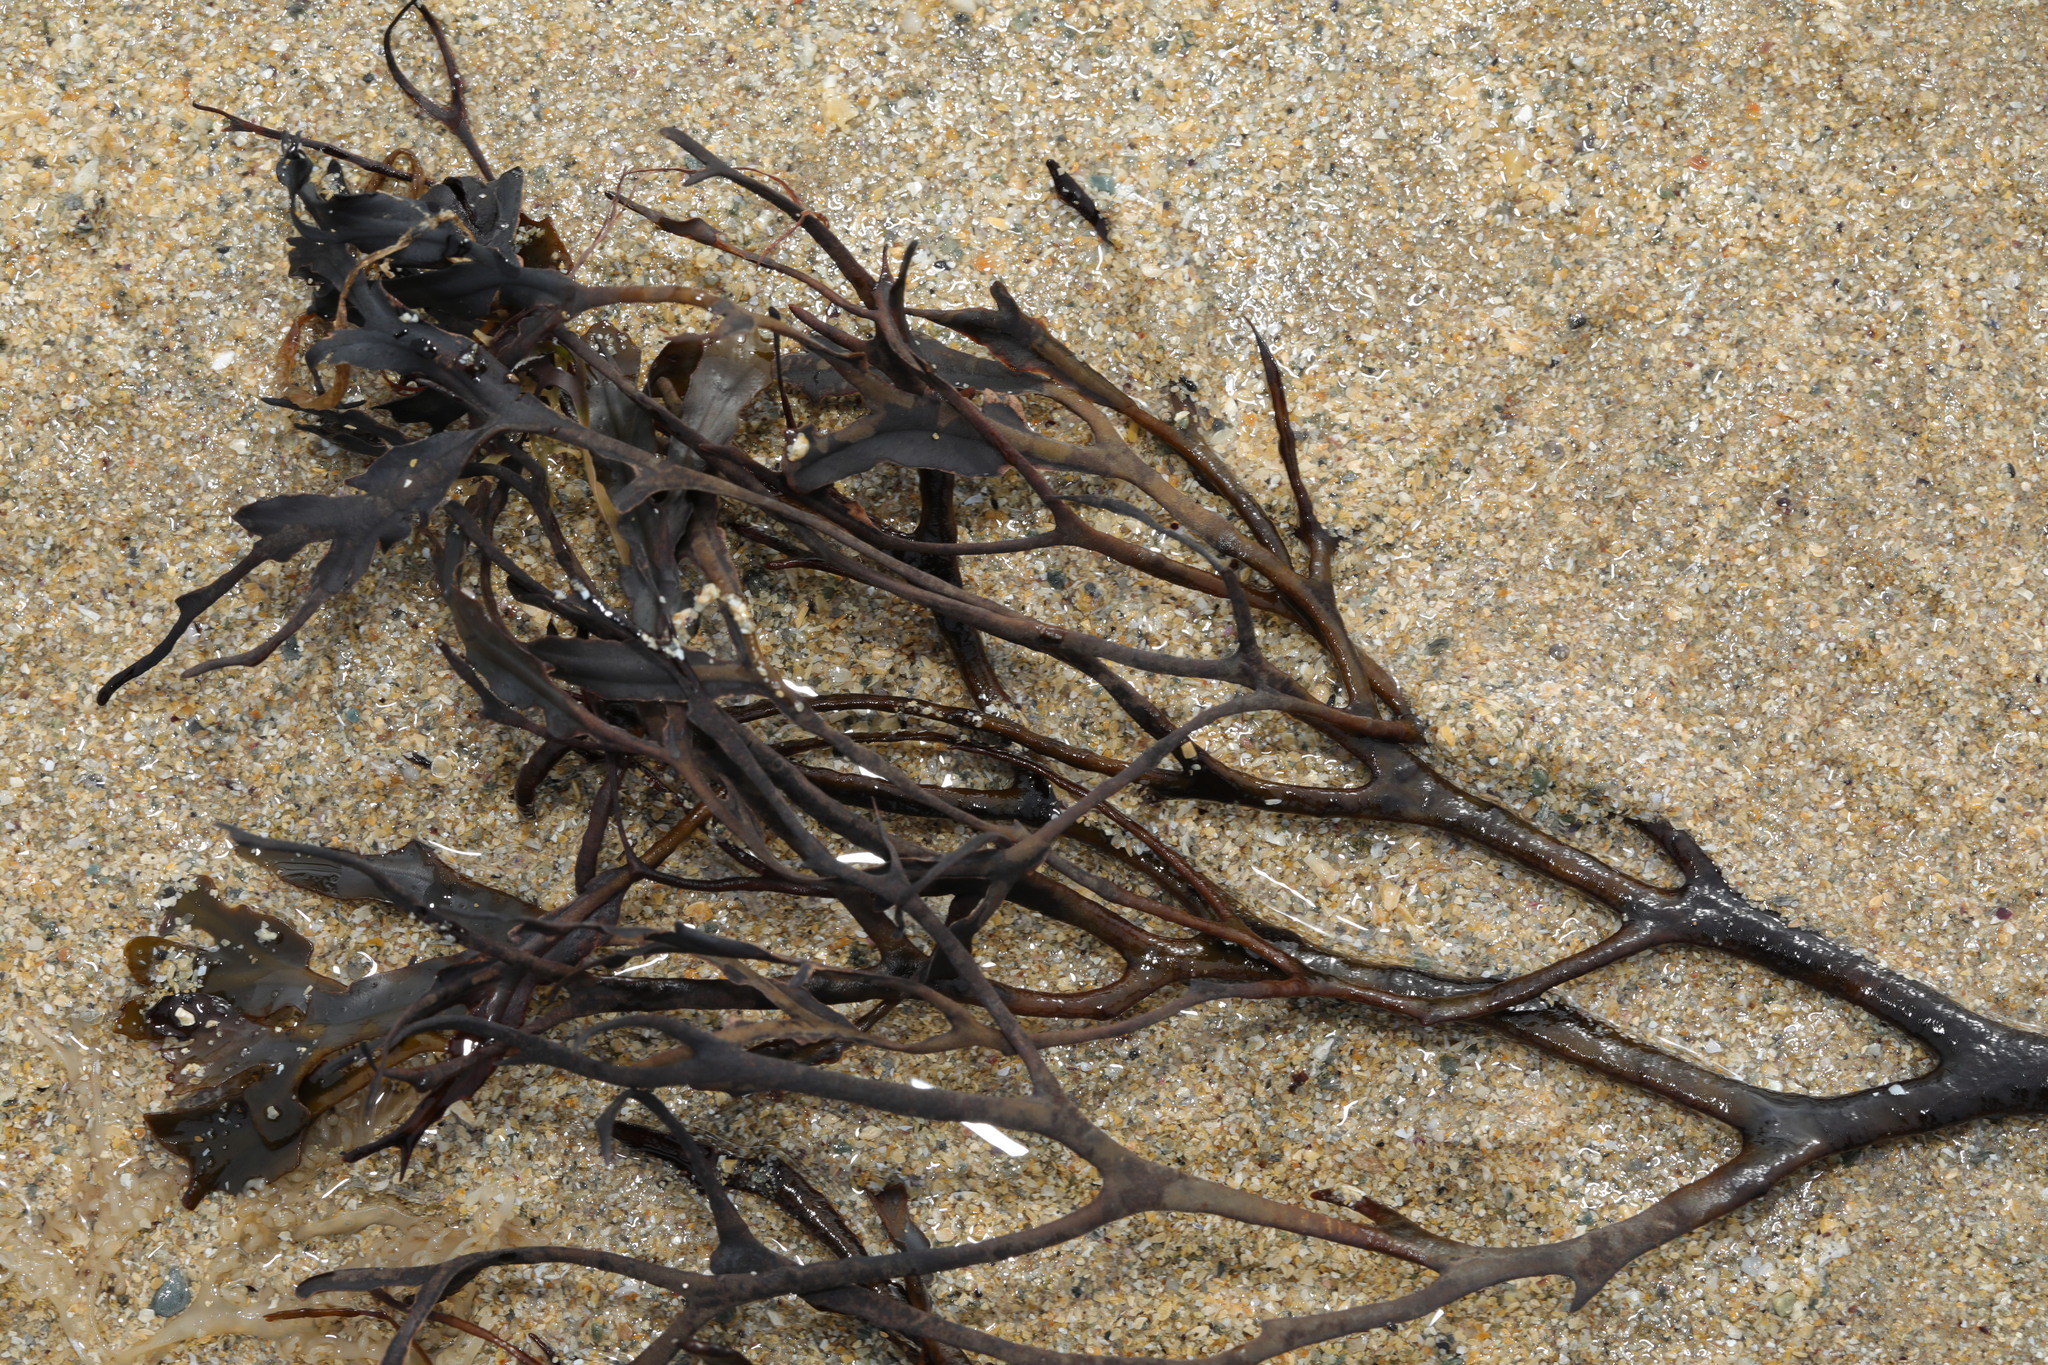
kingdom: Chromista
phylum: Ochrophyta
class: Phaeophyceae
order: Fucales
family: Fucaceae
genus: Fucus
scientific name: Fucus vesiculosus
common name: Bladder wrack
